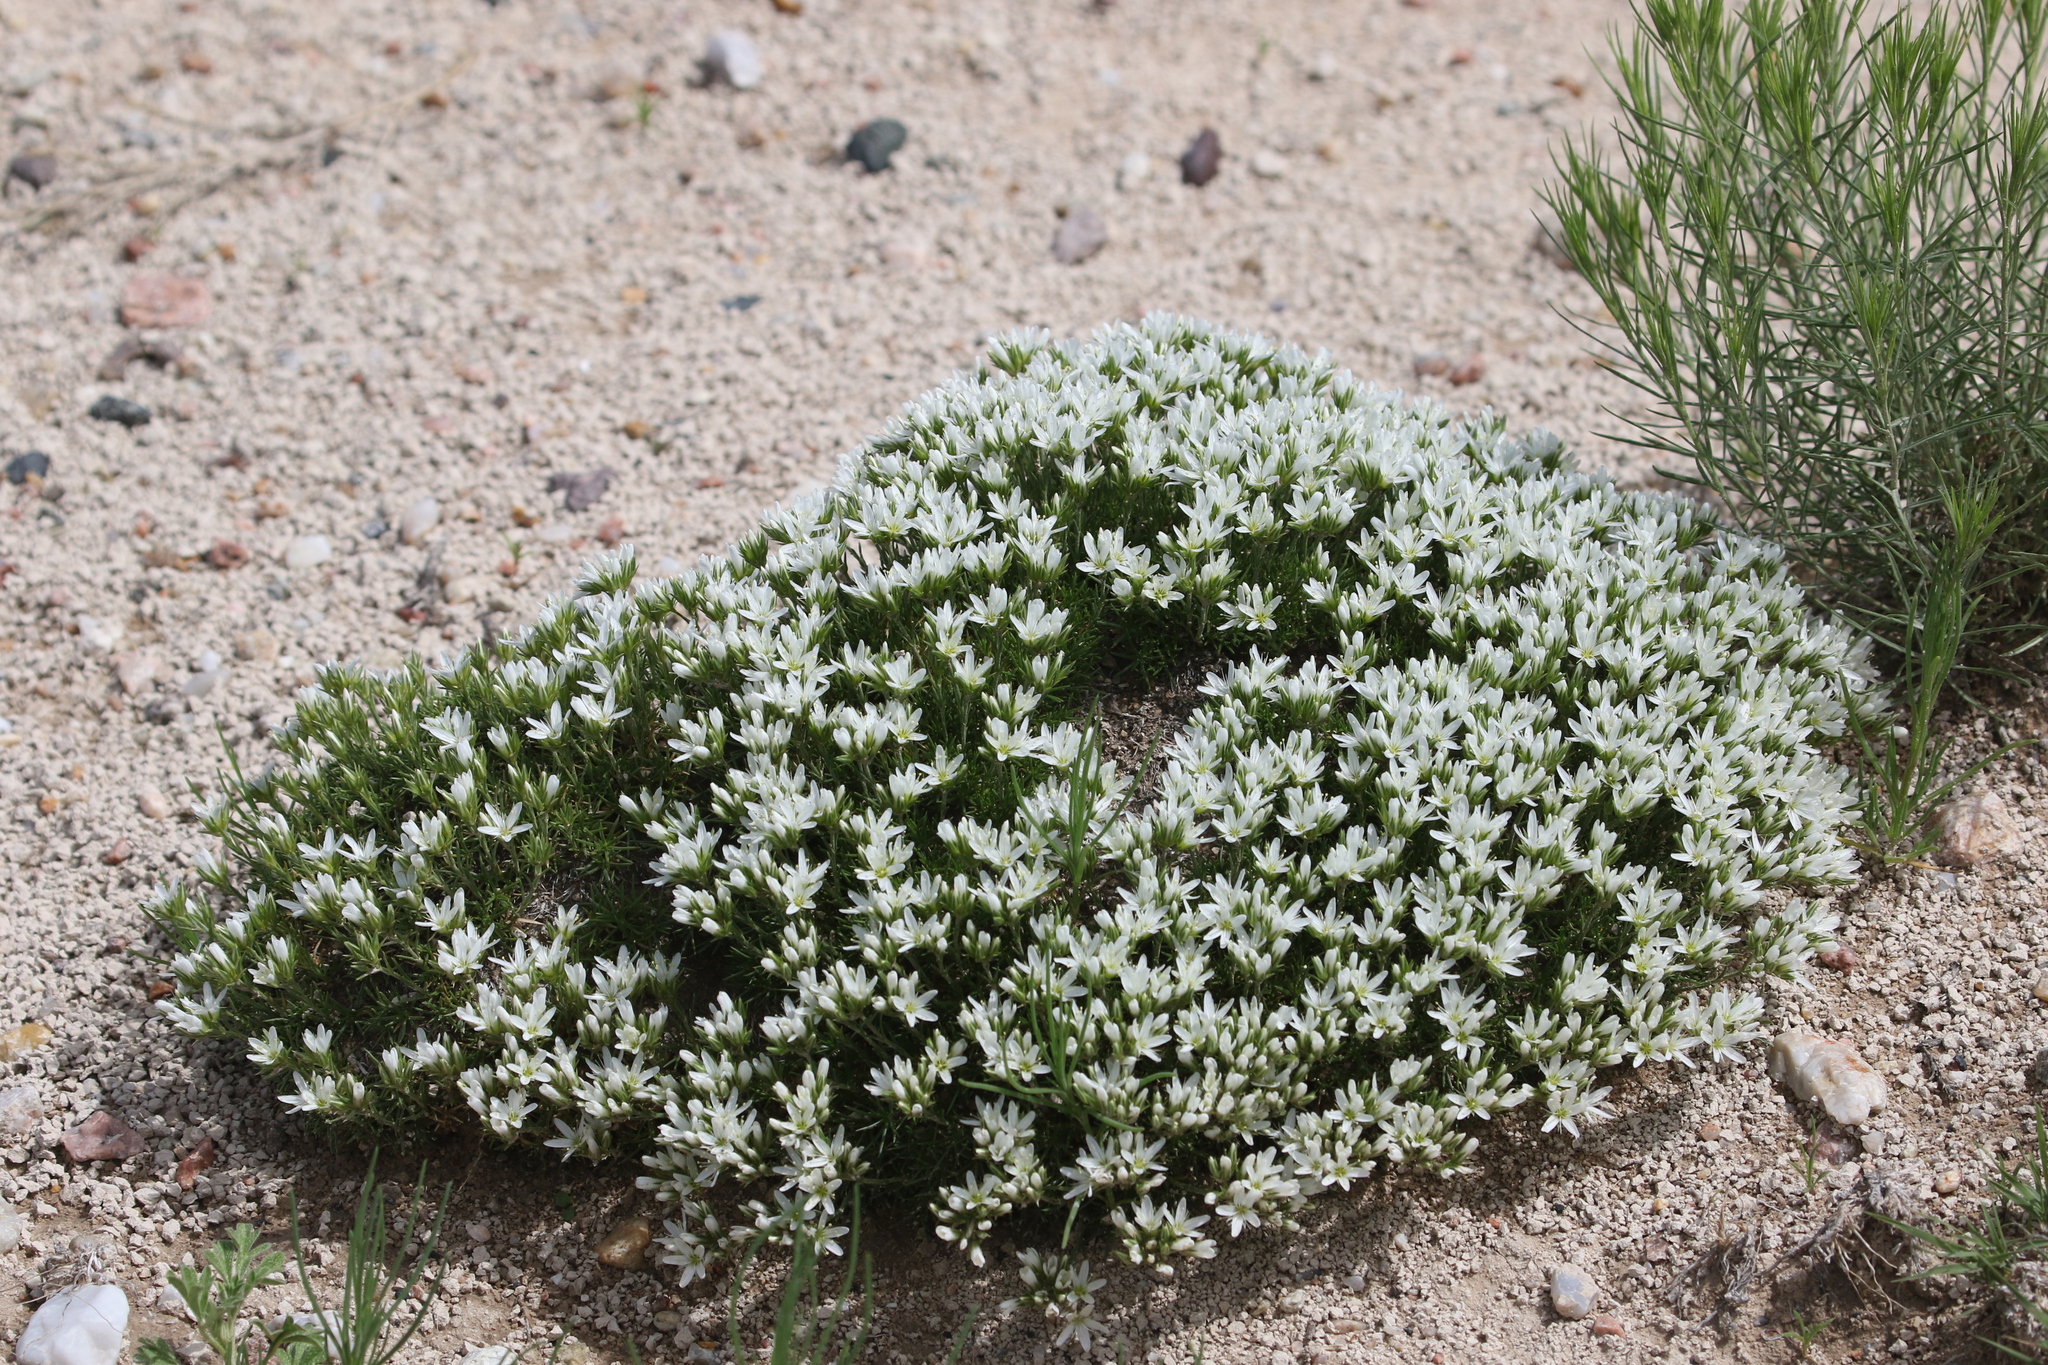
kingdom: Plantae
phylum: Tracheophyta
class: Magnoliopsida
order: Caryophyllales
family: Caryophyllaceae
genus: Eremogone
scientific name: Eremogone hookeri
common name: Hooker's sandwort
